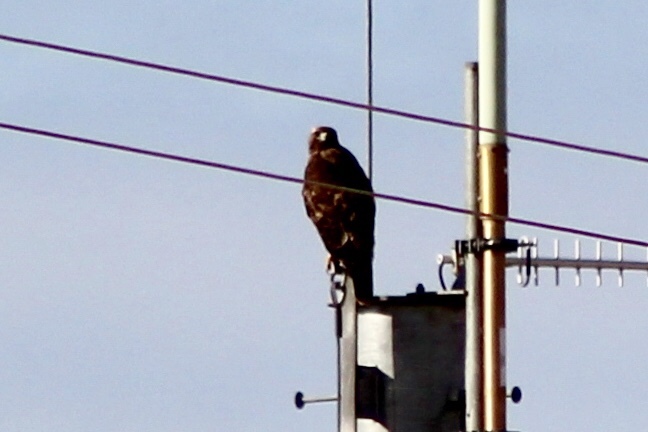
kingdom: Animalia
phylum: Chordata
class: Aves
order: Accipitriformes
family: Accipitridae
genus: Buteo
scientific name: Buteo jamaicensis
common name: Red-tailed hawk
